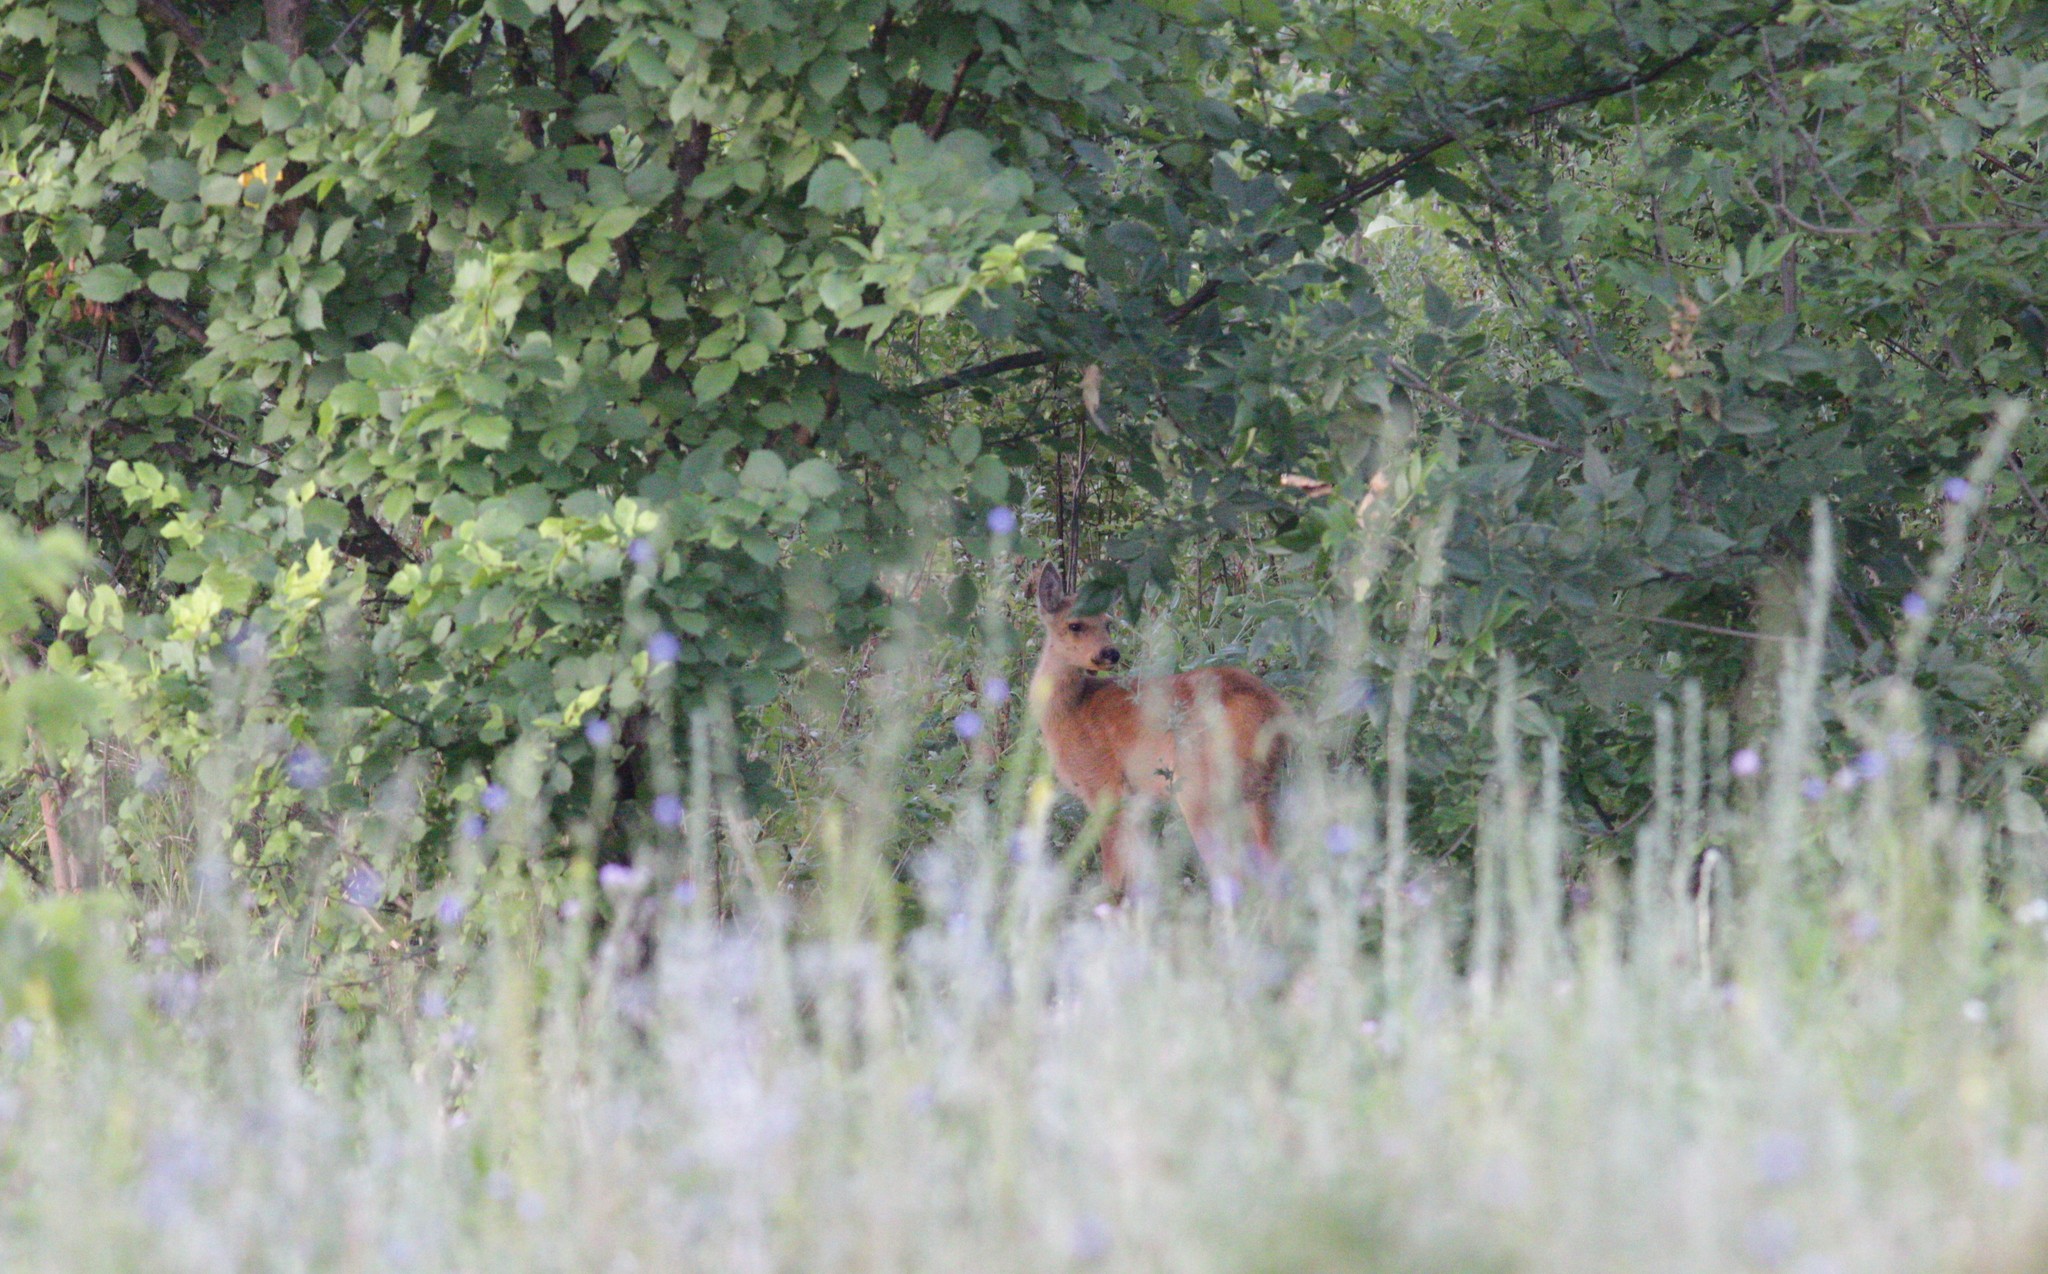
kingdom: Animalia
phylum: Chordata
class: Mammalia
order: Artiodactyla
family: Cervidae
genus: Capreolus
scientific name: Capreolus pygargus
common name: Siberian roe
